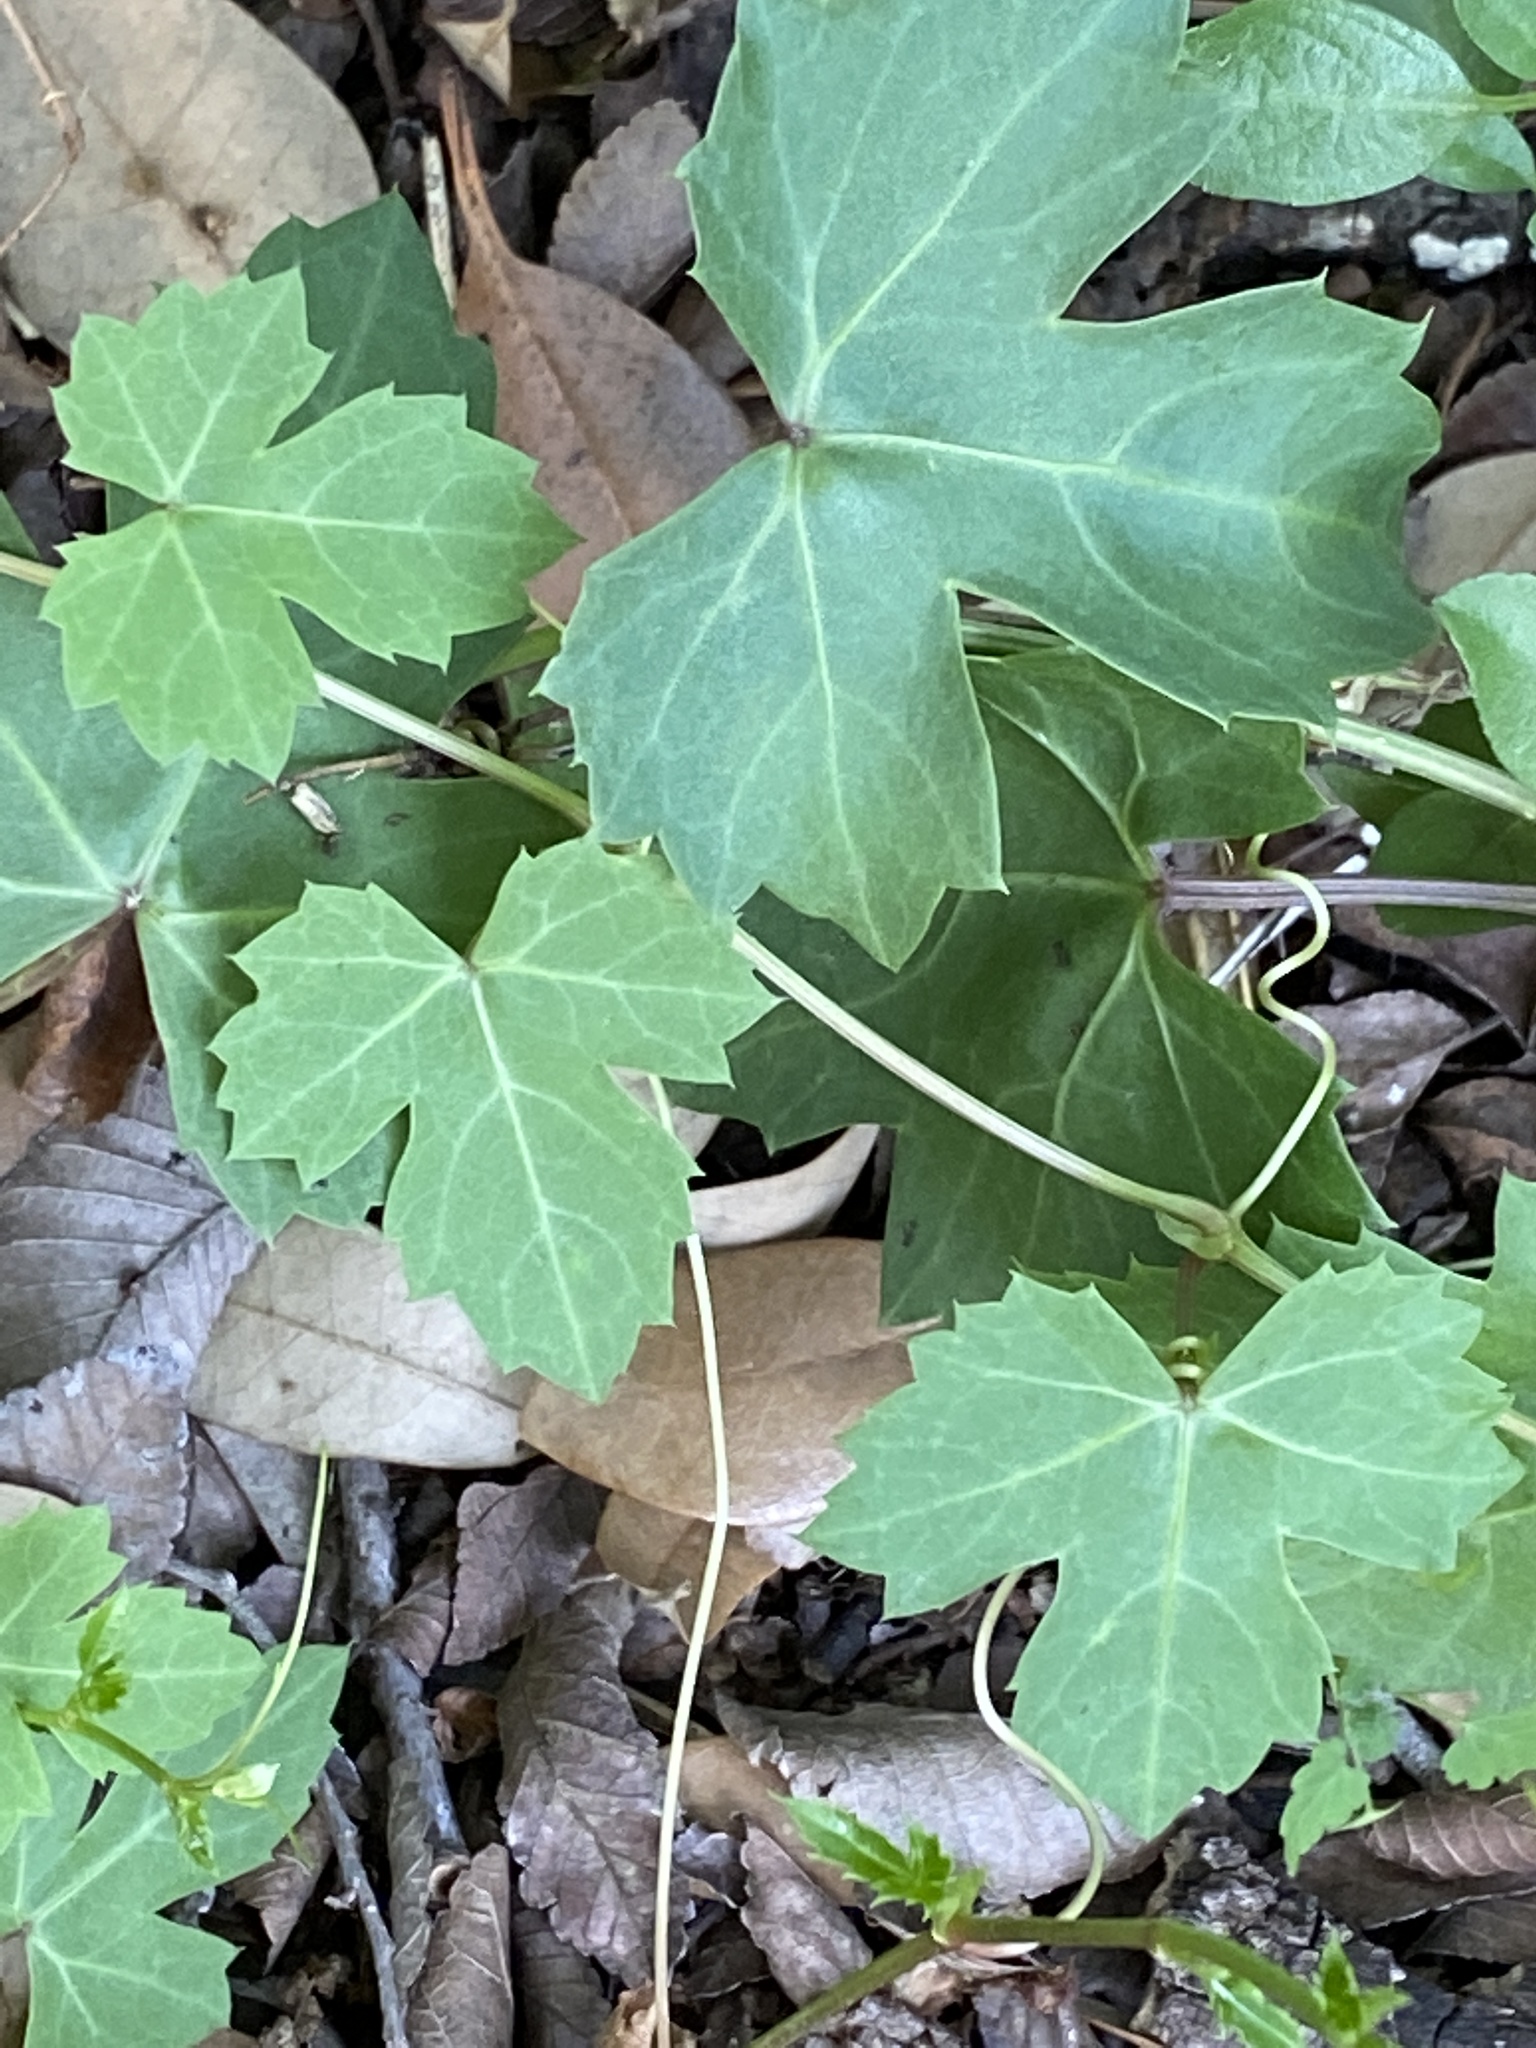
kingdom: Plantae
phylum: Tracheophyta
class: Magnoliopsida
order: Vitales
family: Vitaceae
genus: Cissus
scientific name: Cissus trifoliata
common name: Vine-sorrel
